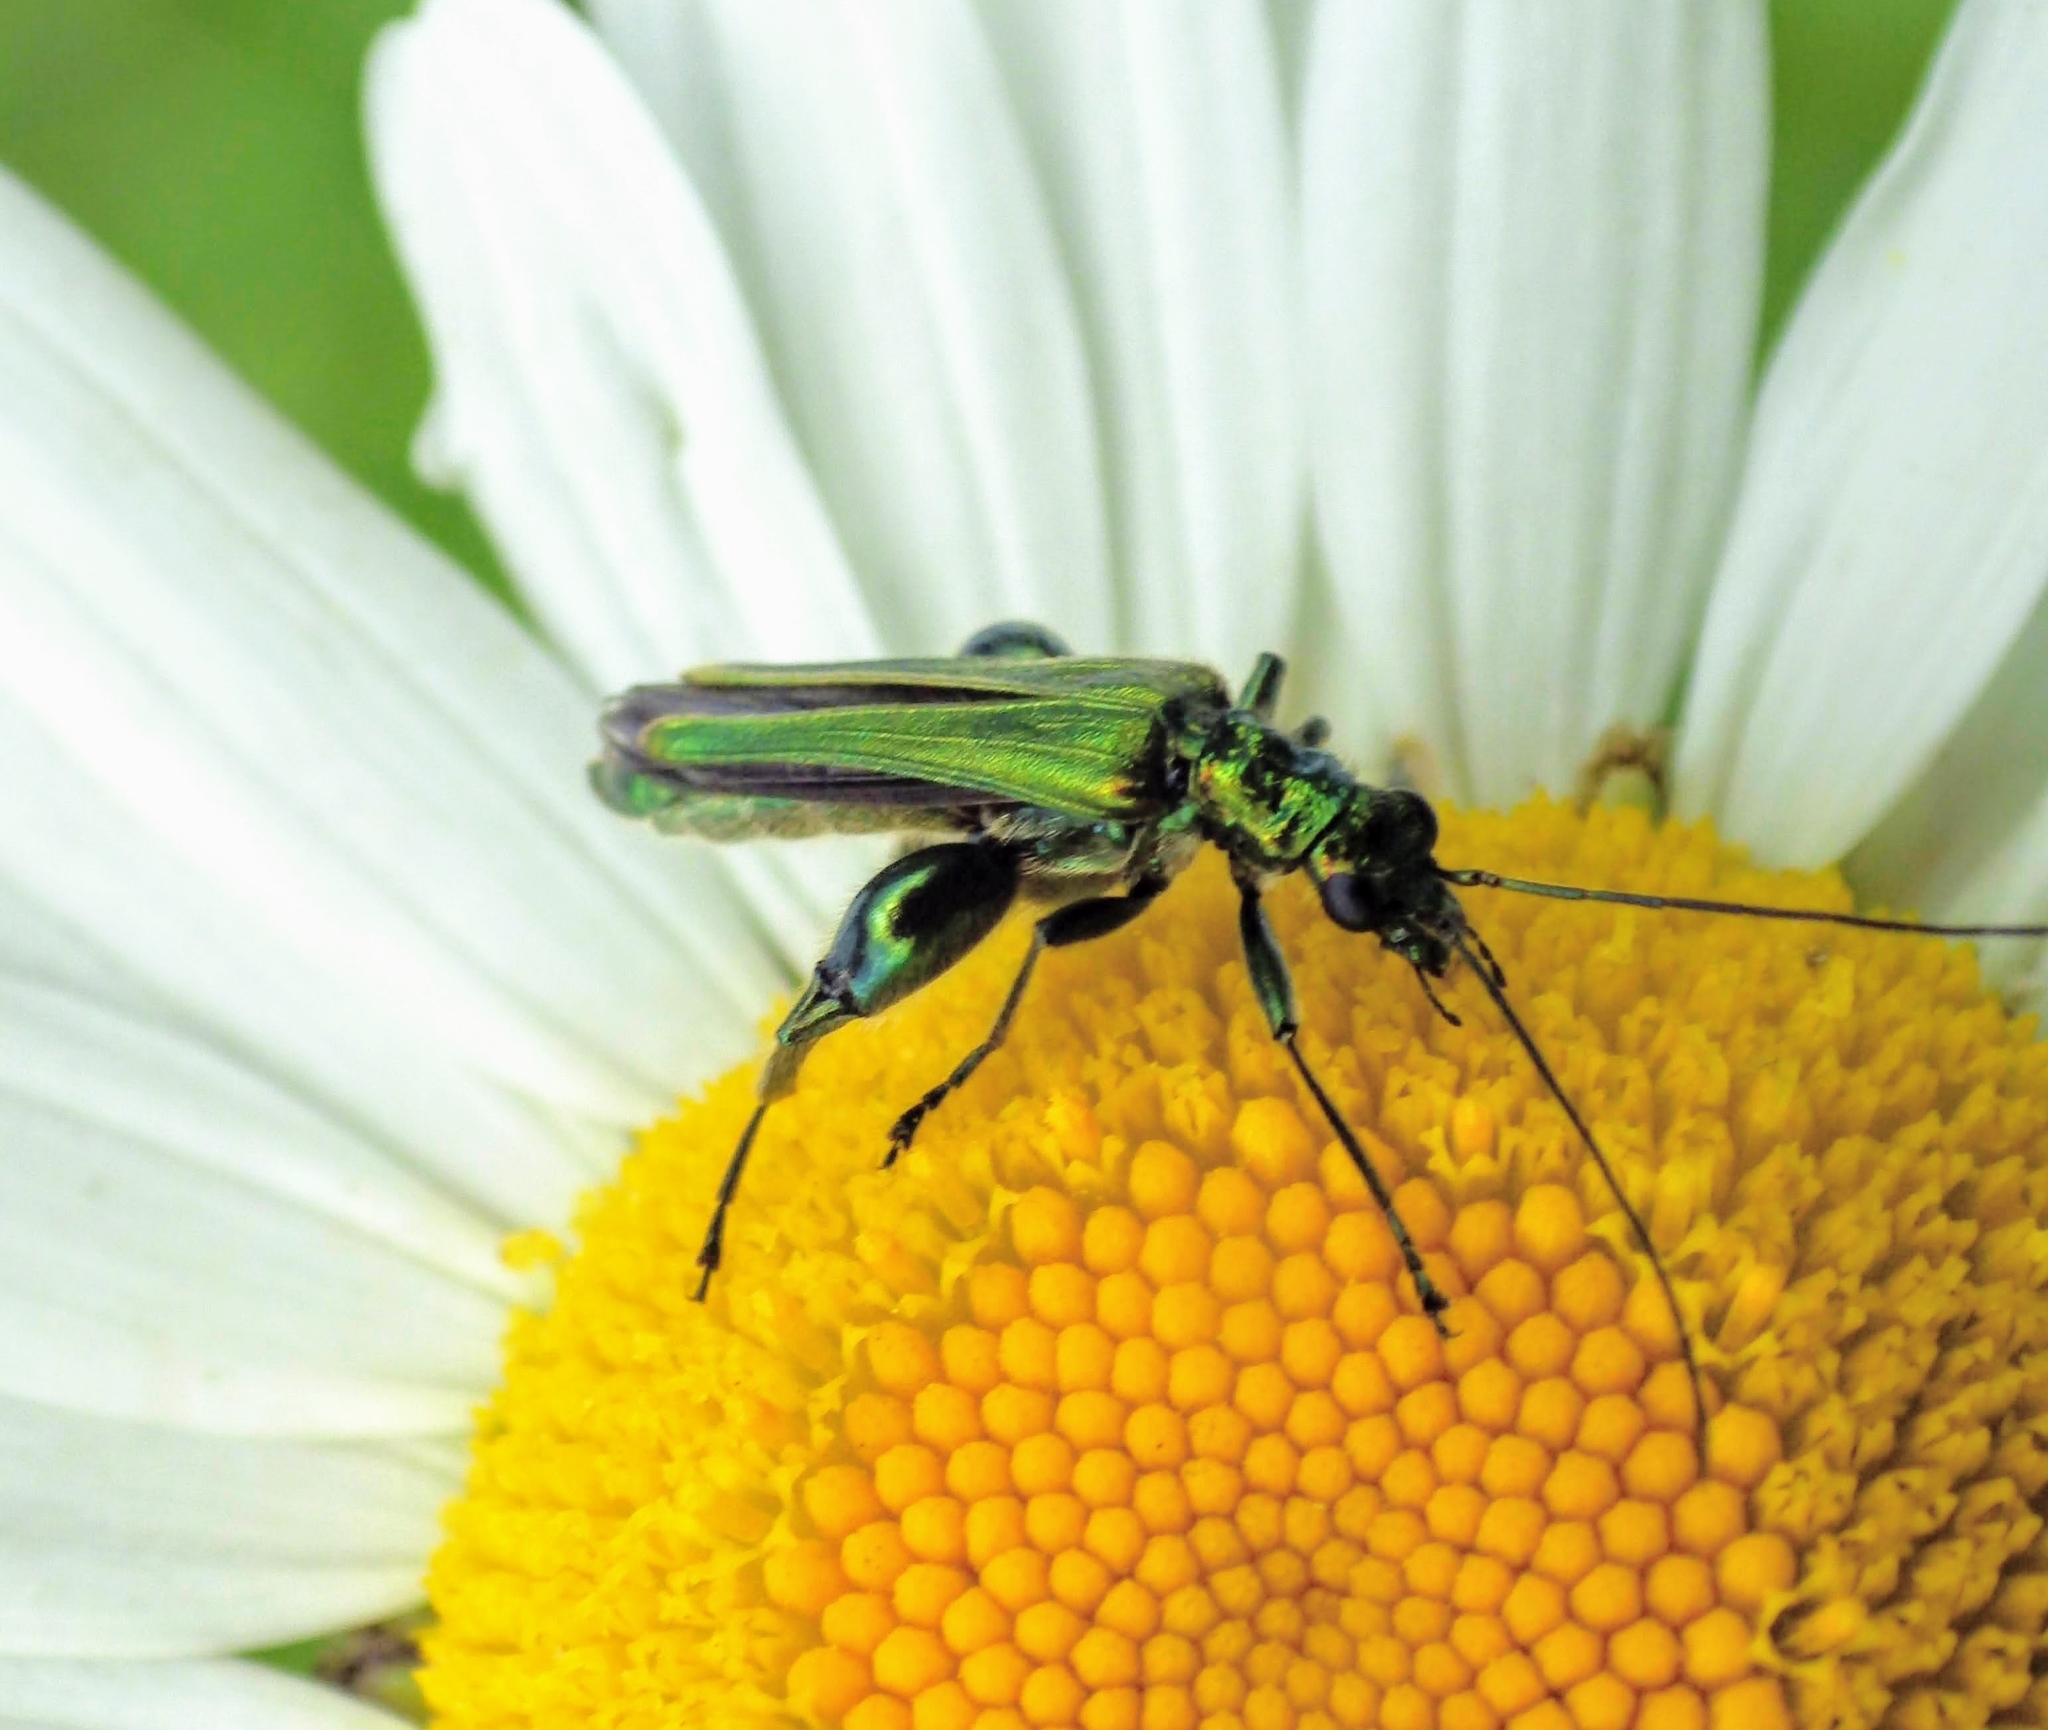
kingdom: Animalia
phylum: Arthropoda
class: Insecta
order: Coleoptera
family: Oedemeridae
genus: Oedemera
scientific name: Oedemera nobilis
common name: Swollen-thighed beetle
